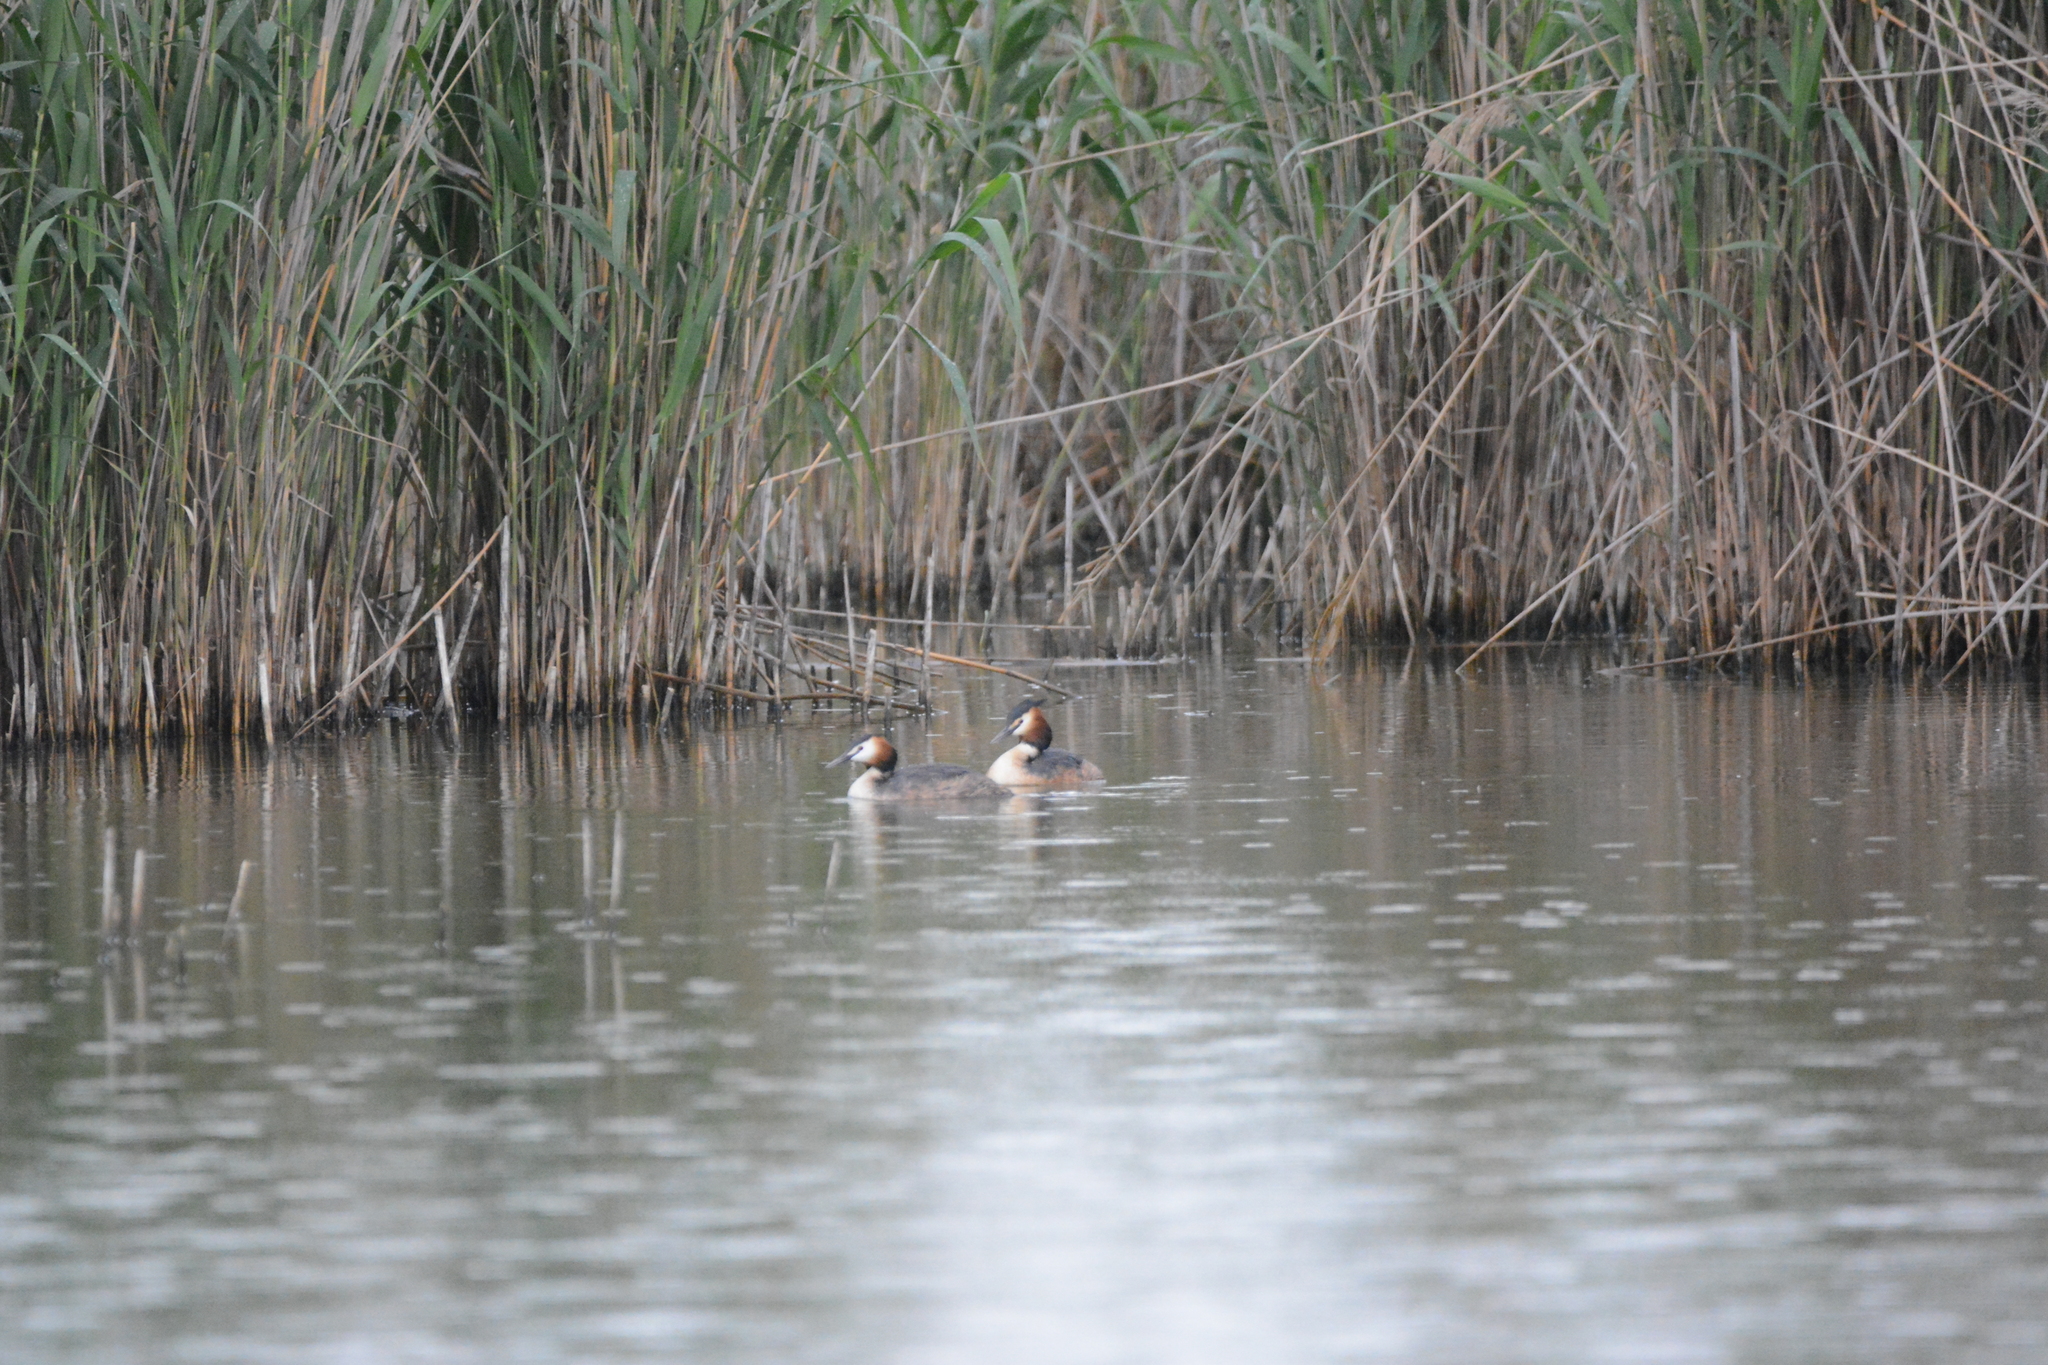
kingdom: Animalia
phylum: Chordata
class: Aves
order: Podicipediformes
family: Podicipedidae
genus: Podiceps
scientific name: Podiceps cristatus
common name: Great crested grebe
